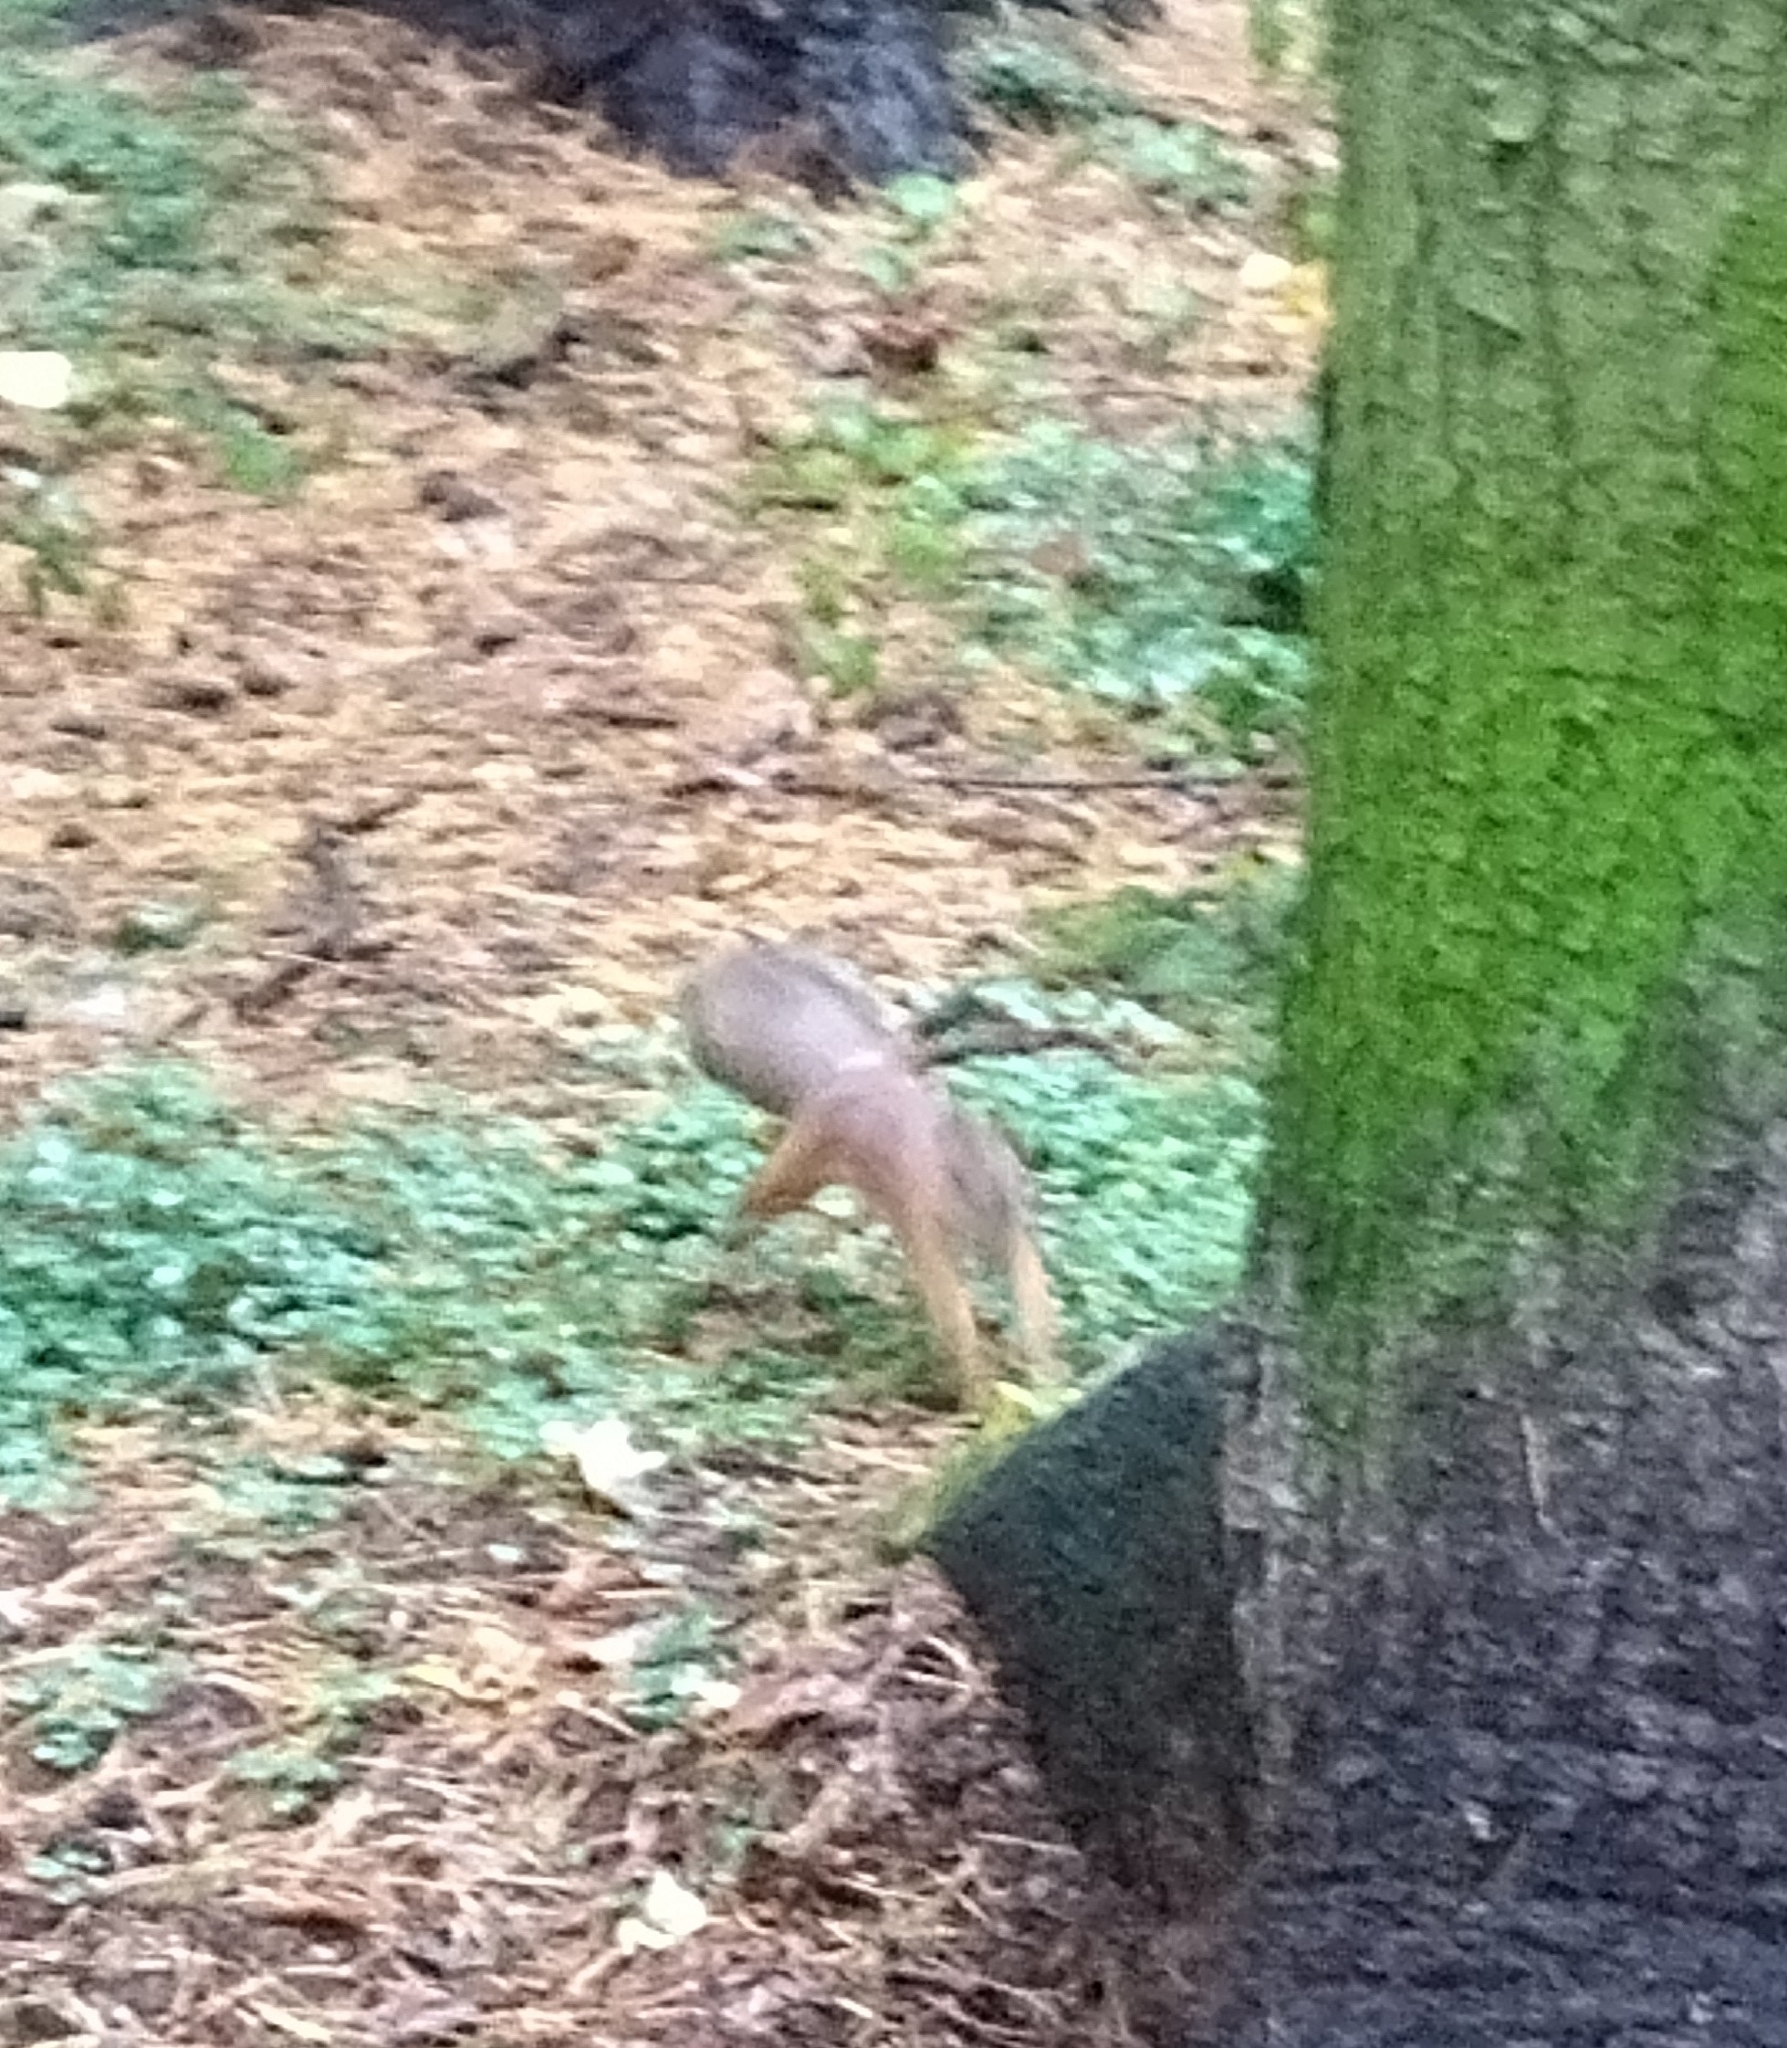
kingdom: Animalia
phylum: Chordata
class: Mammalia
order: Rodentia
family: Sciuridae
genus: Sciurus
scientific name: Sciurus vulgaris
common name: Eurasian red squirrel
